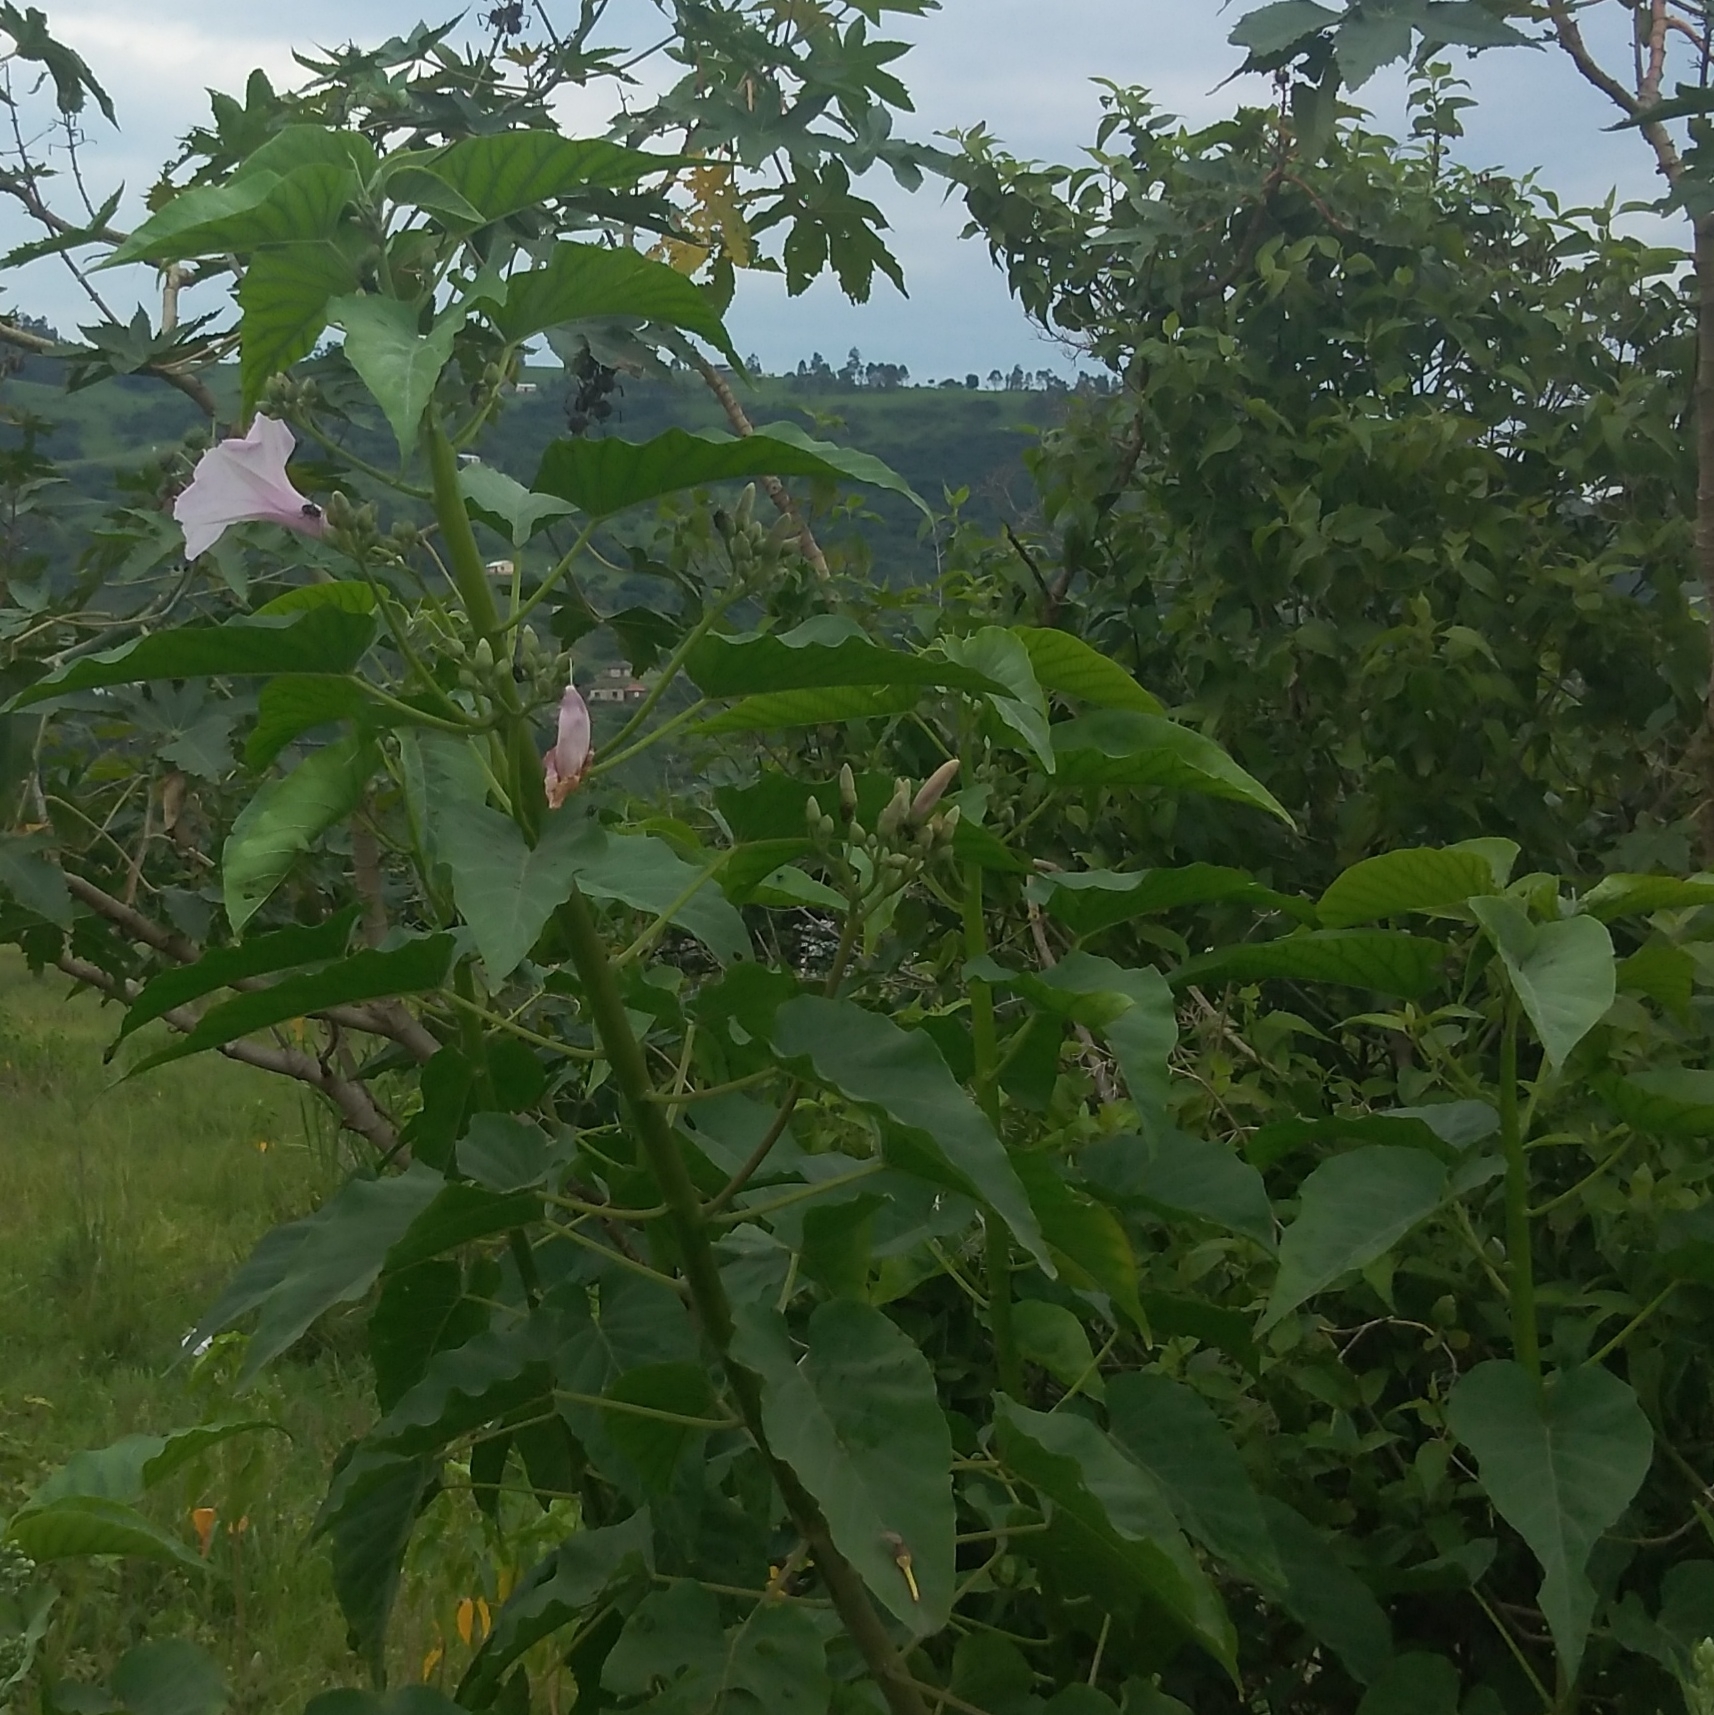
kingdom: Plantae
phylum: Tracheophyta
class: Magnoliopsida
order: Solanales
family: Convolvulaceae
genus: Ipomoea
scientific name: Ipomoea carnea
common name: Morning-glory
